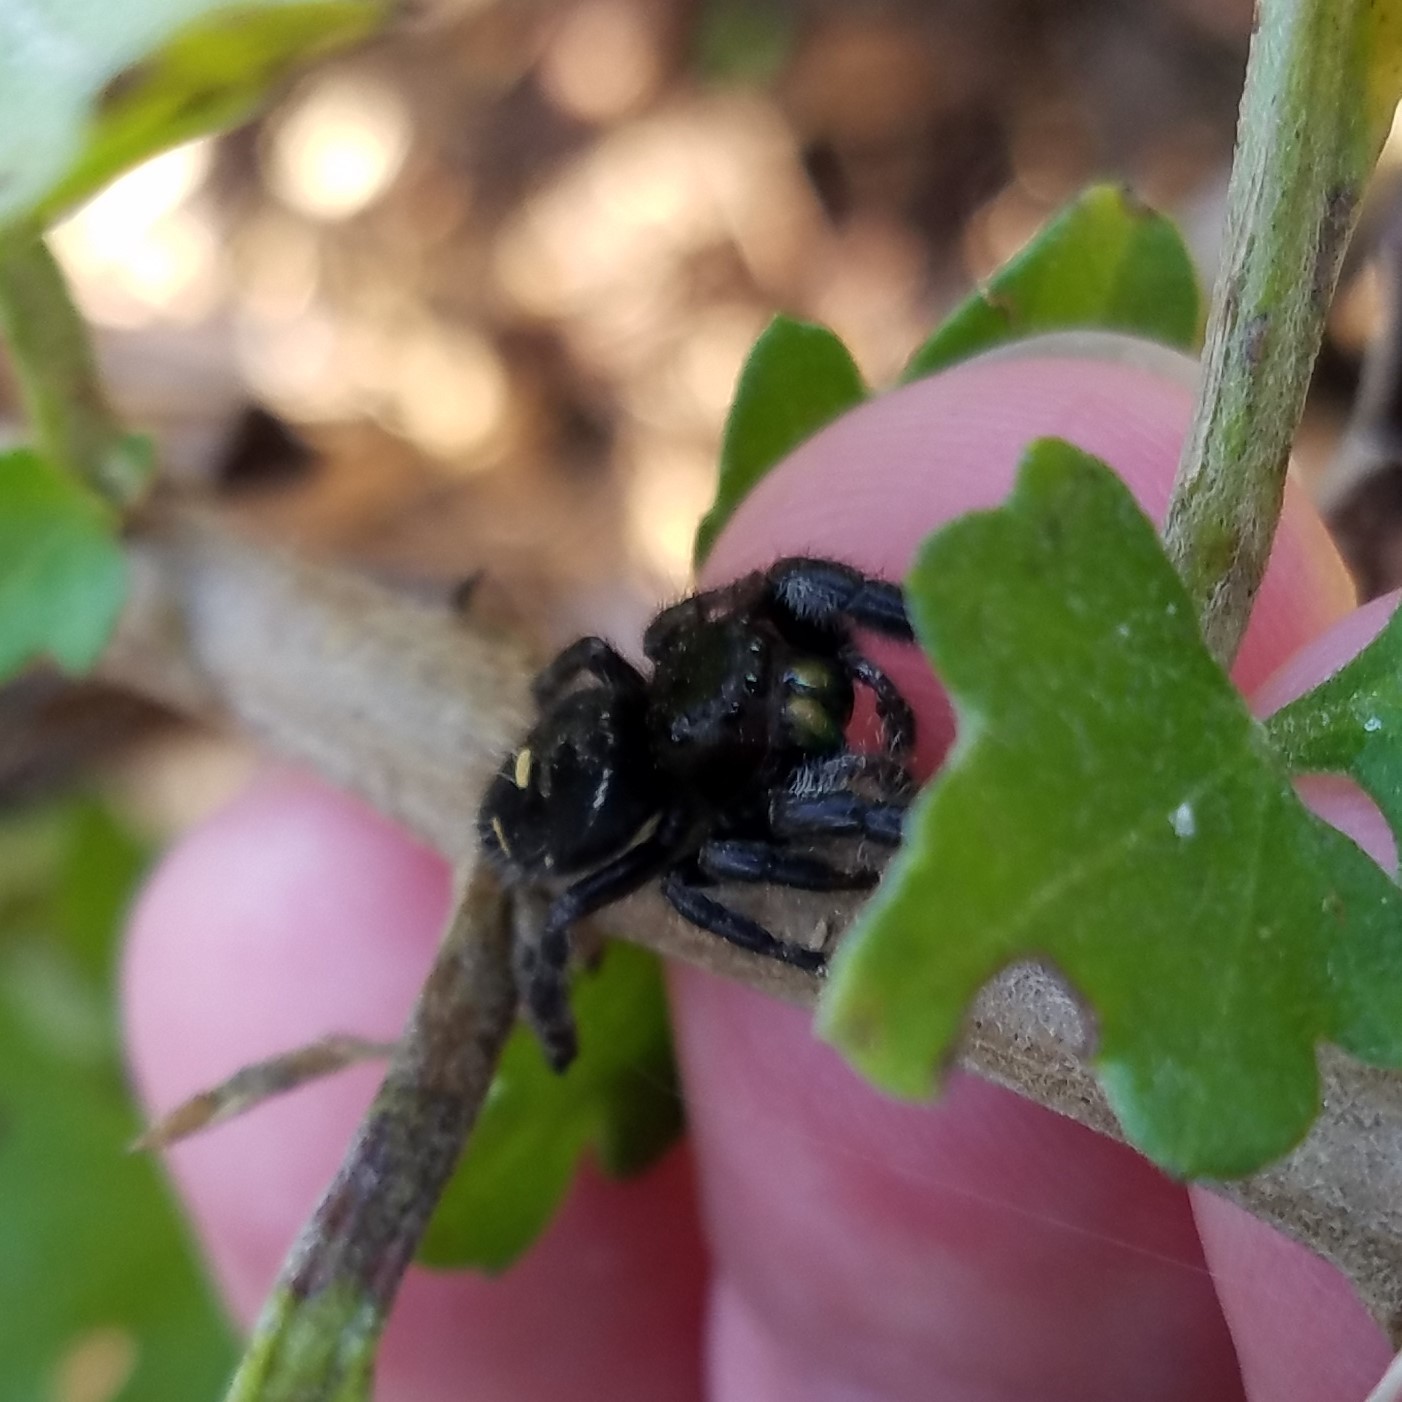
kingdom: Animalia
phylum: Arthropoda
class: Arachnida
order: Araneae
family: Salticidae
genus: Phidippus
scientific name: Phidippus audax
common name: Bold jumper
